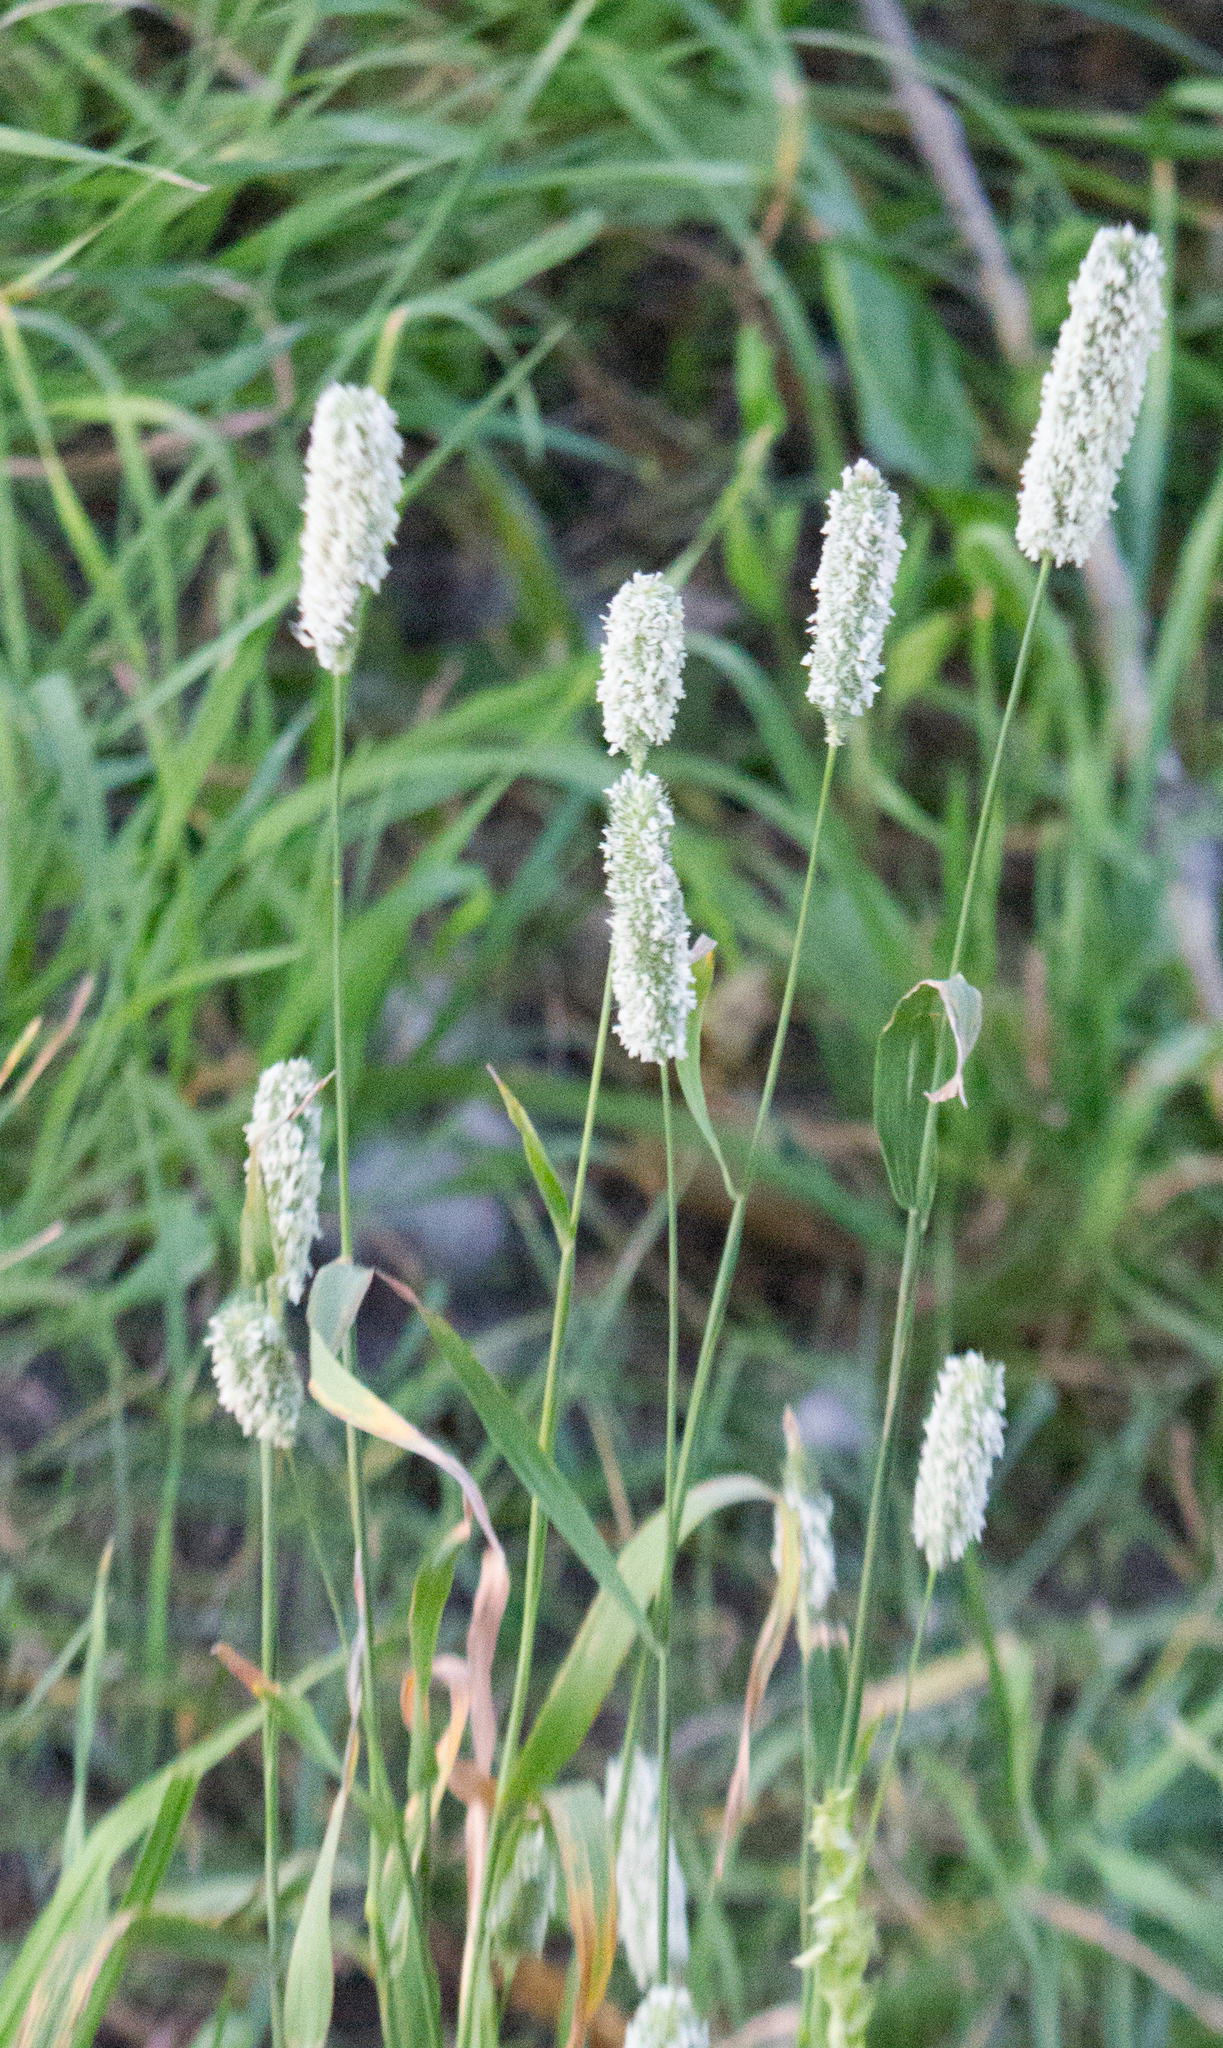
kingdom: Plantae
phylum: Tracheophyta
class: Liliopsida
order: Poales
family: Poaceae
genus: Phleum
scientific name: Phleum pratense
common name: Timothy grass
